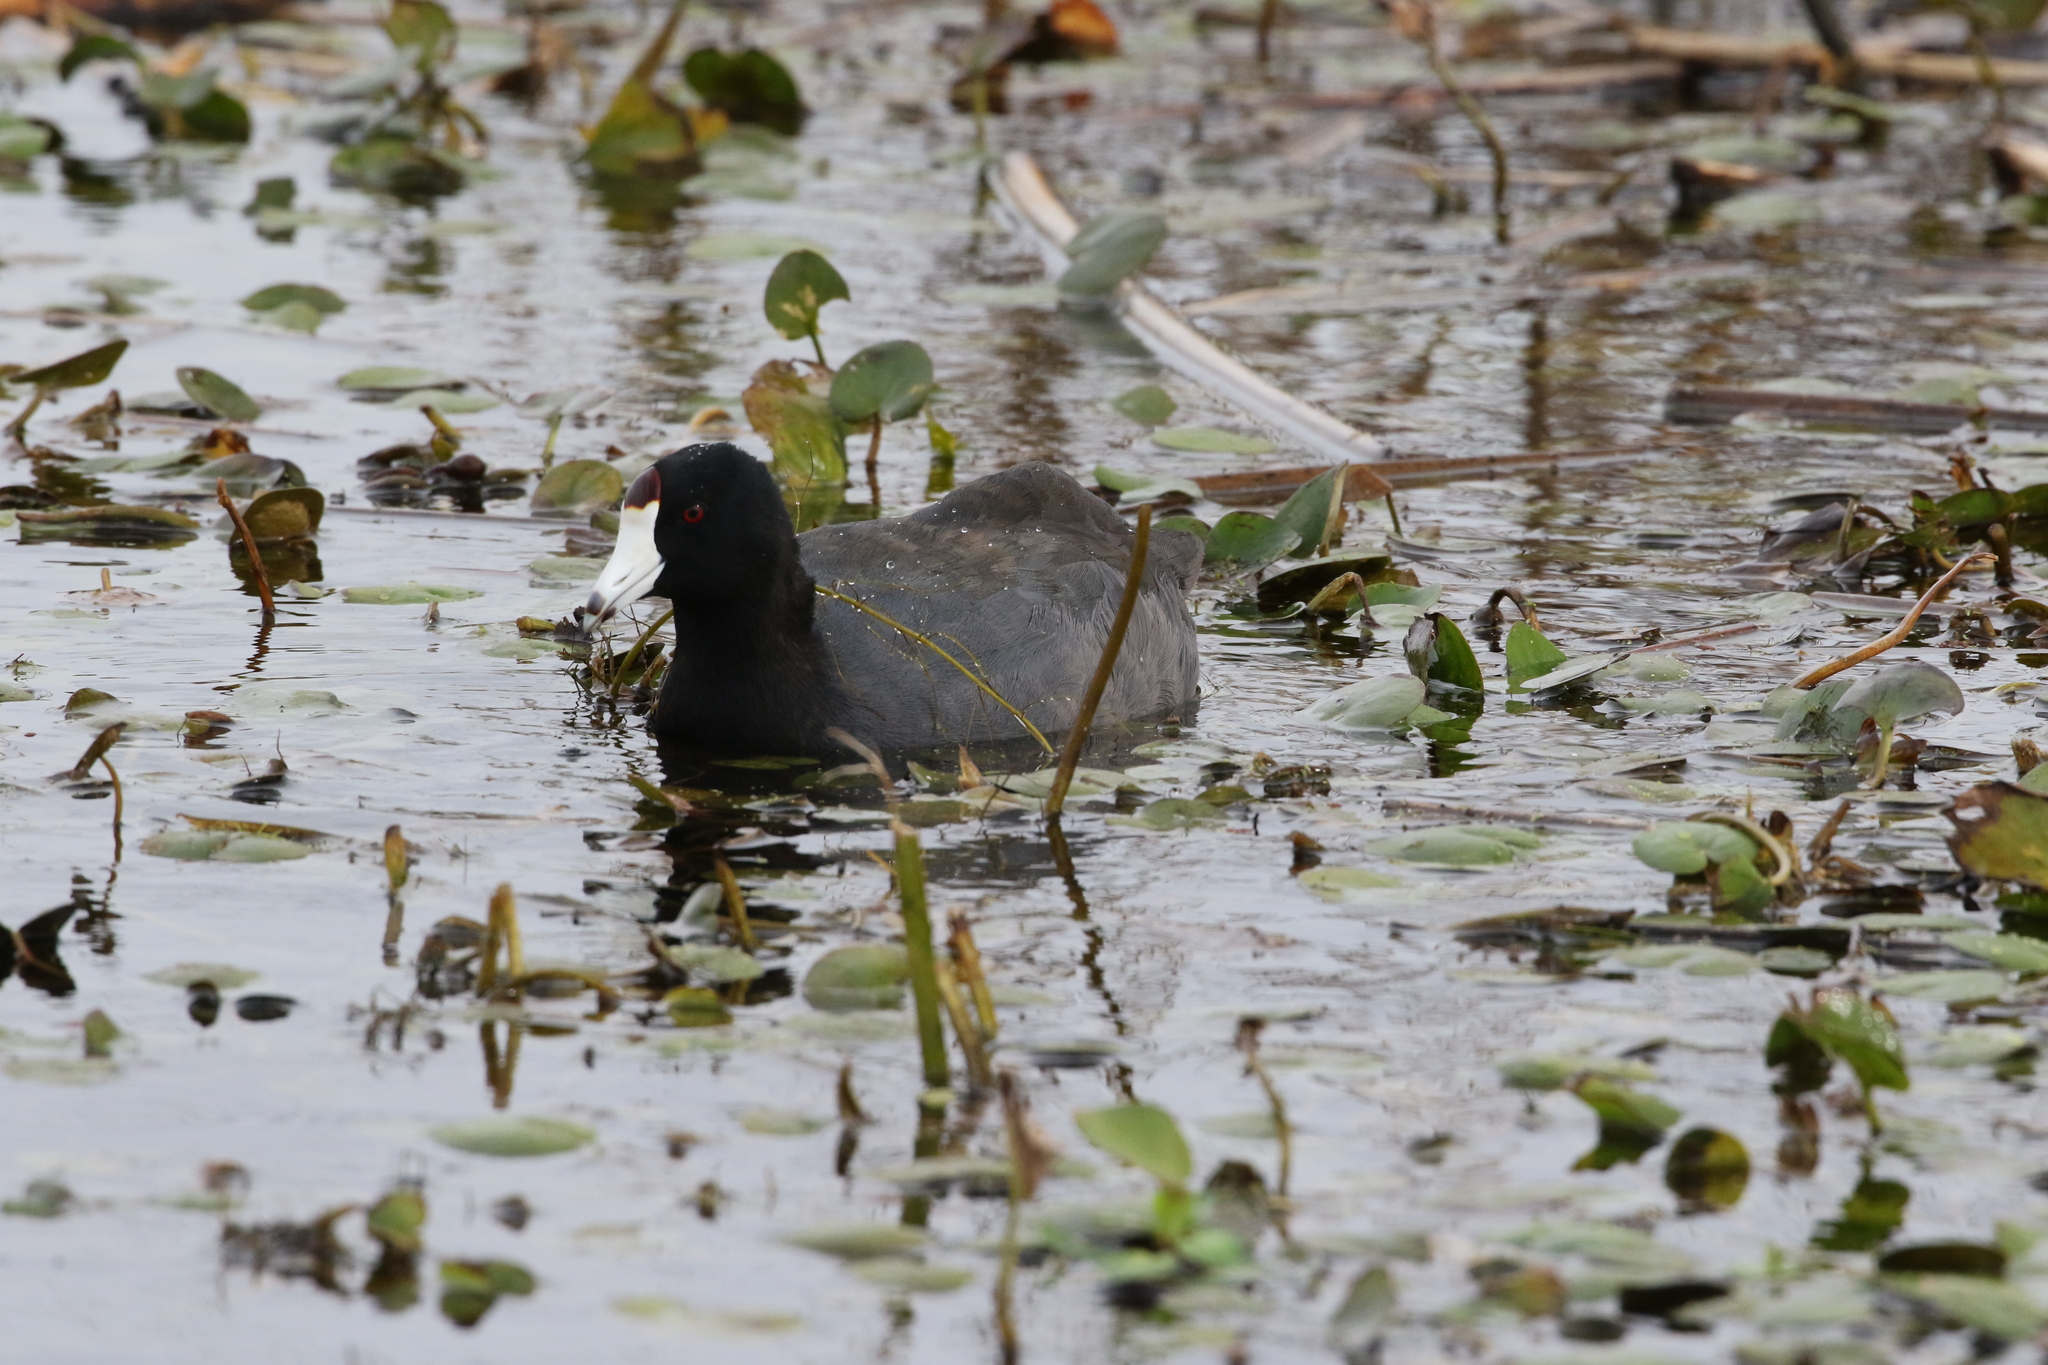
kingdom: Animalia
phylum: Chordata
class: Aves
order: Gruiformes
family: Rallidae
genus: Fulica
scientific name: Fulica americana
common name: American coot
